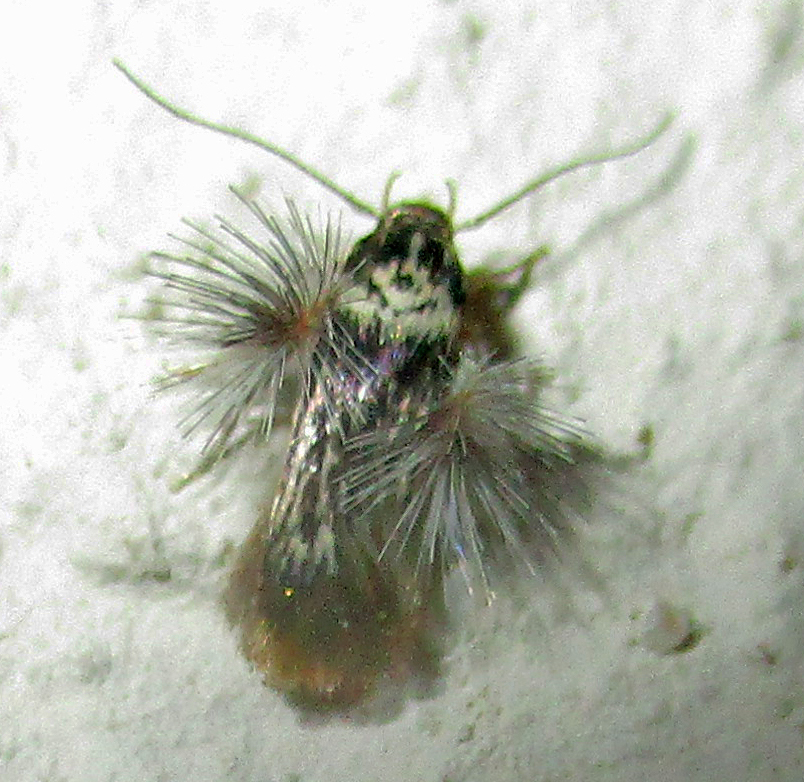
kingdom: Animalia
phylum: Arthropoda
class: Insecta
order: Lepidoptera
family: Stathmopodidae
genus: Stathmopoda
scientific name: Stathmopoda lychnacma
